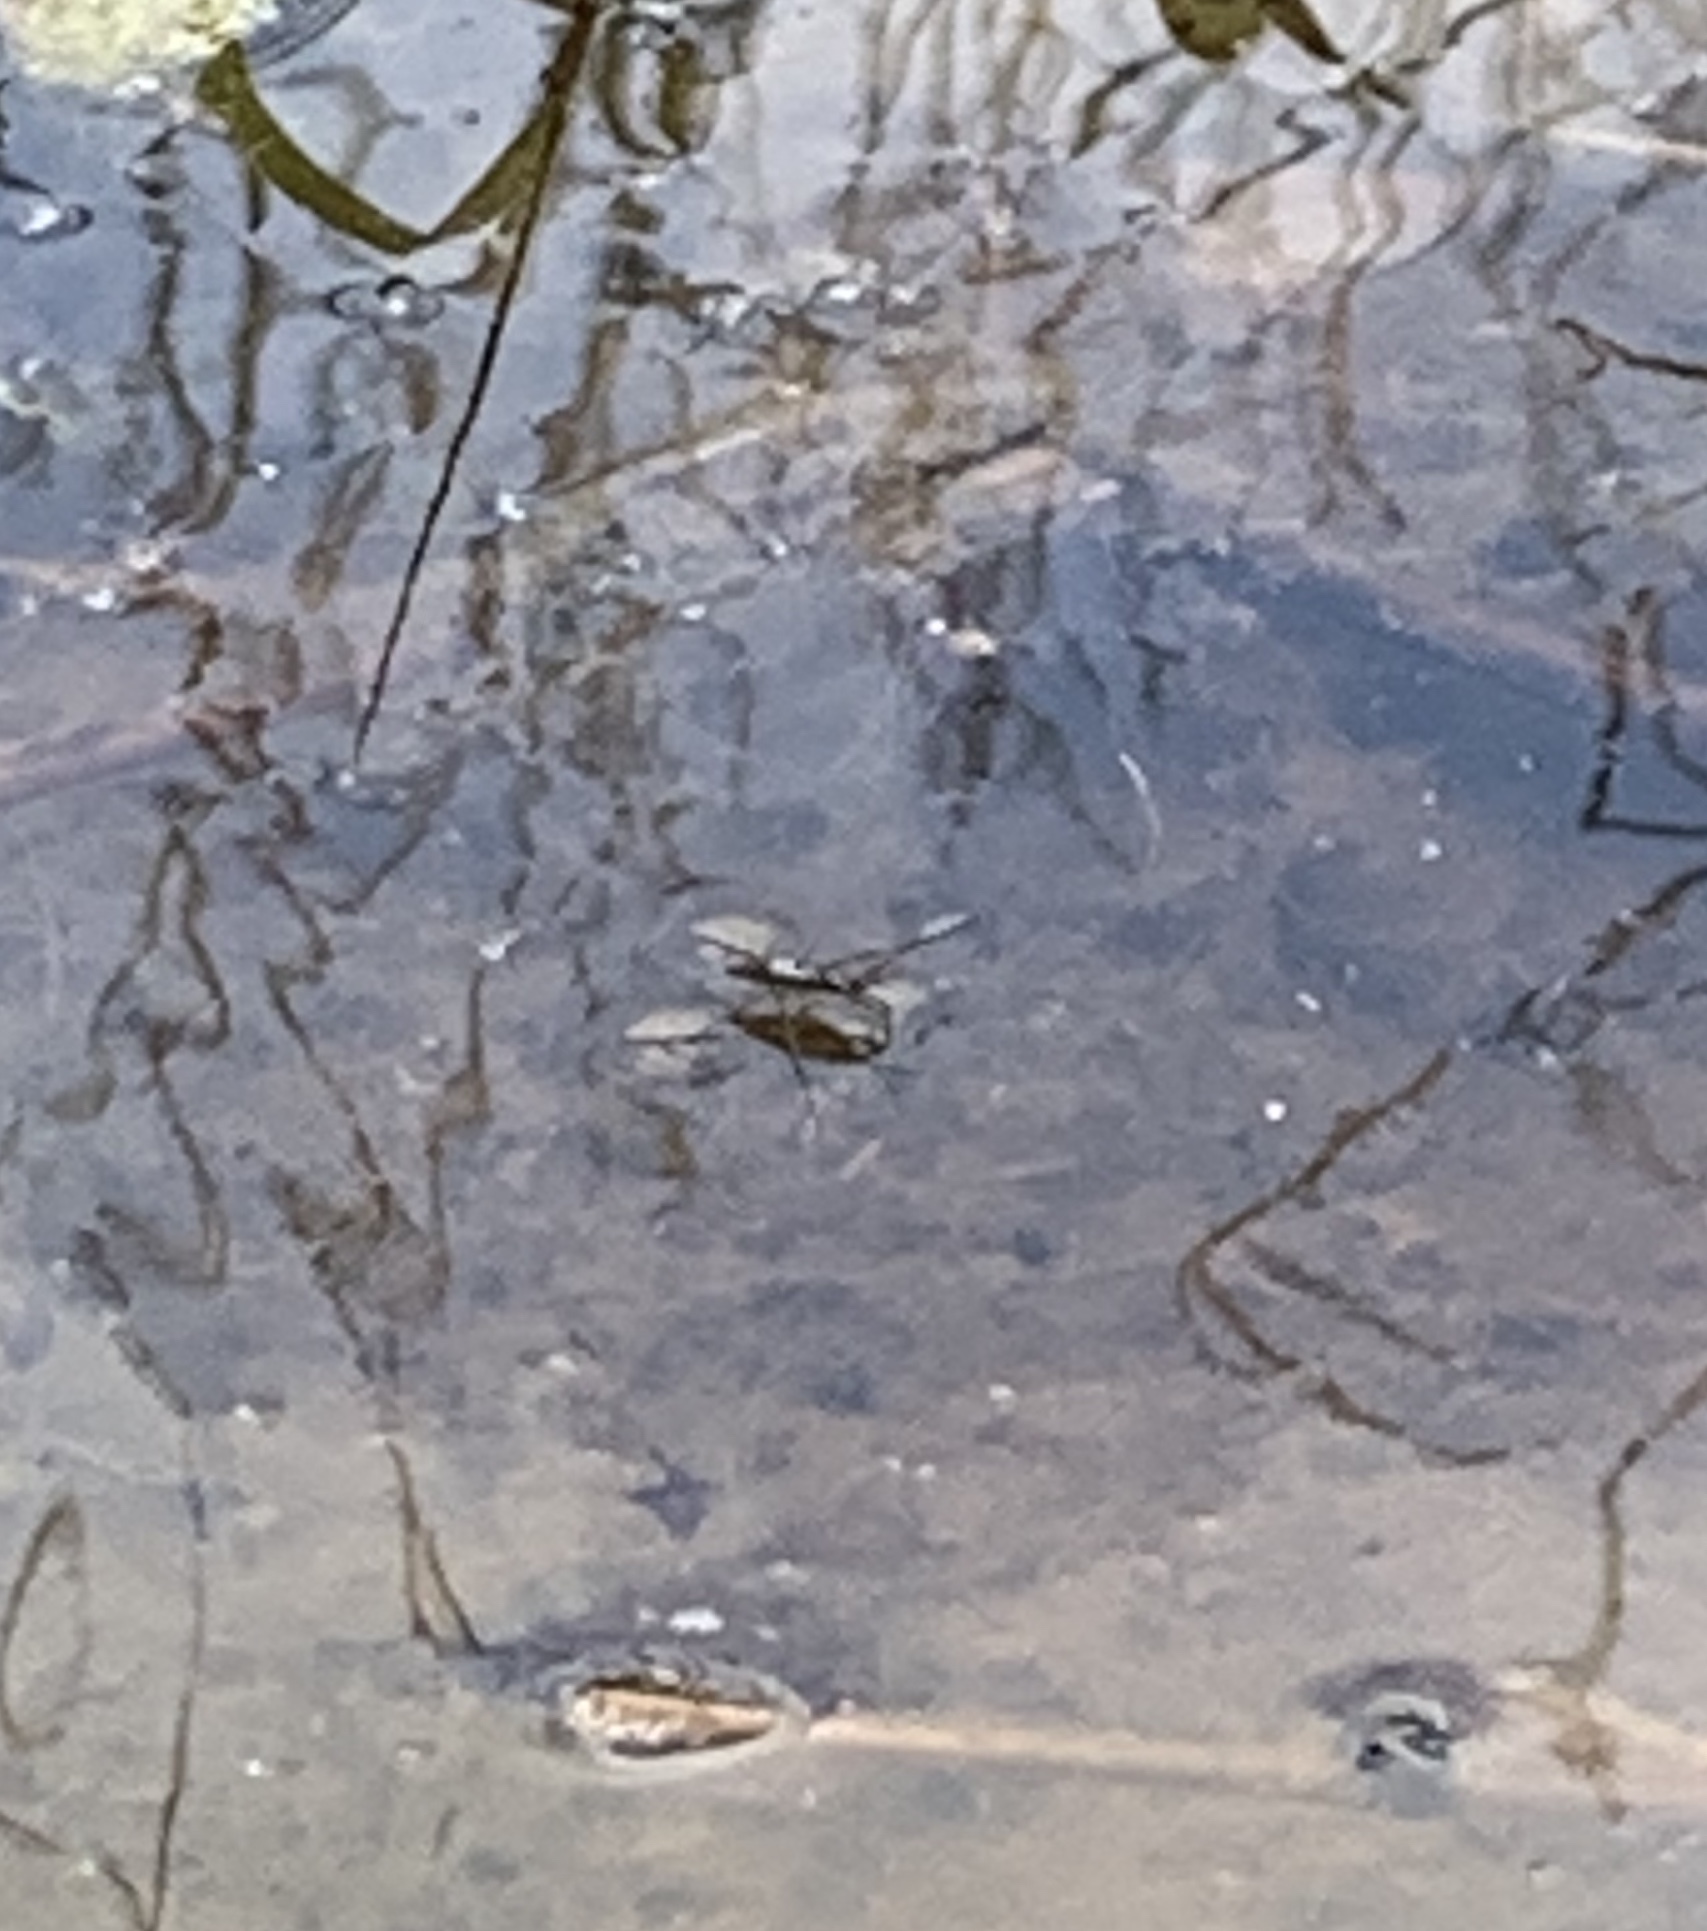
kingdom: Animalia
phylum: Arthropoda
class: Insecta
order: Hemiptera
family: Gerridae
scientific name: Gerridae
